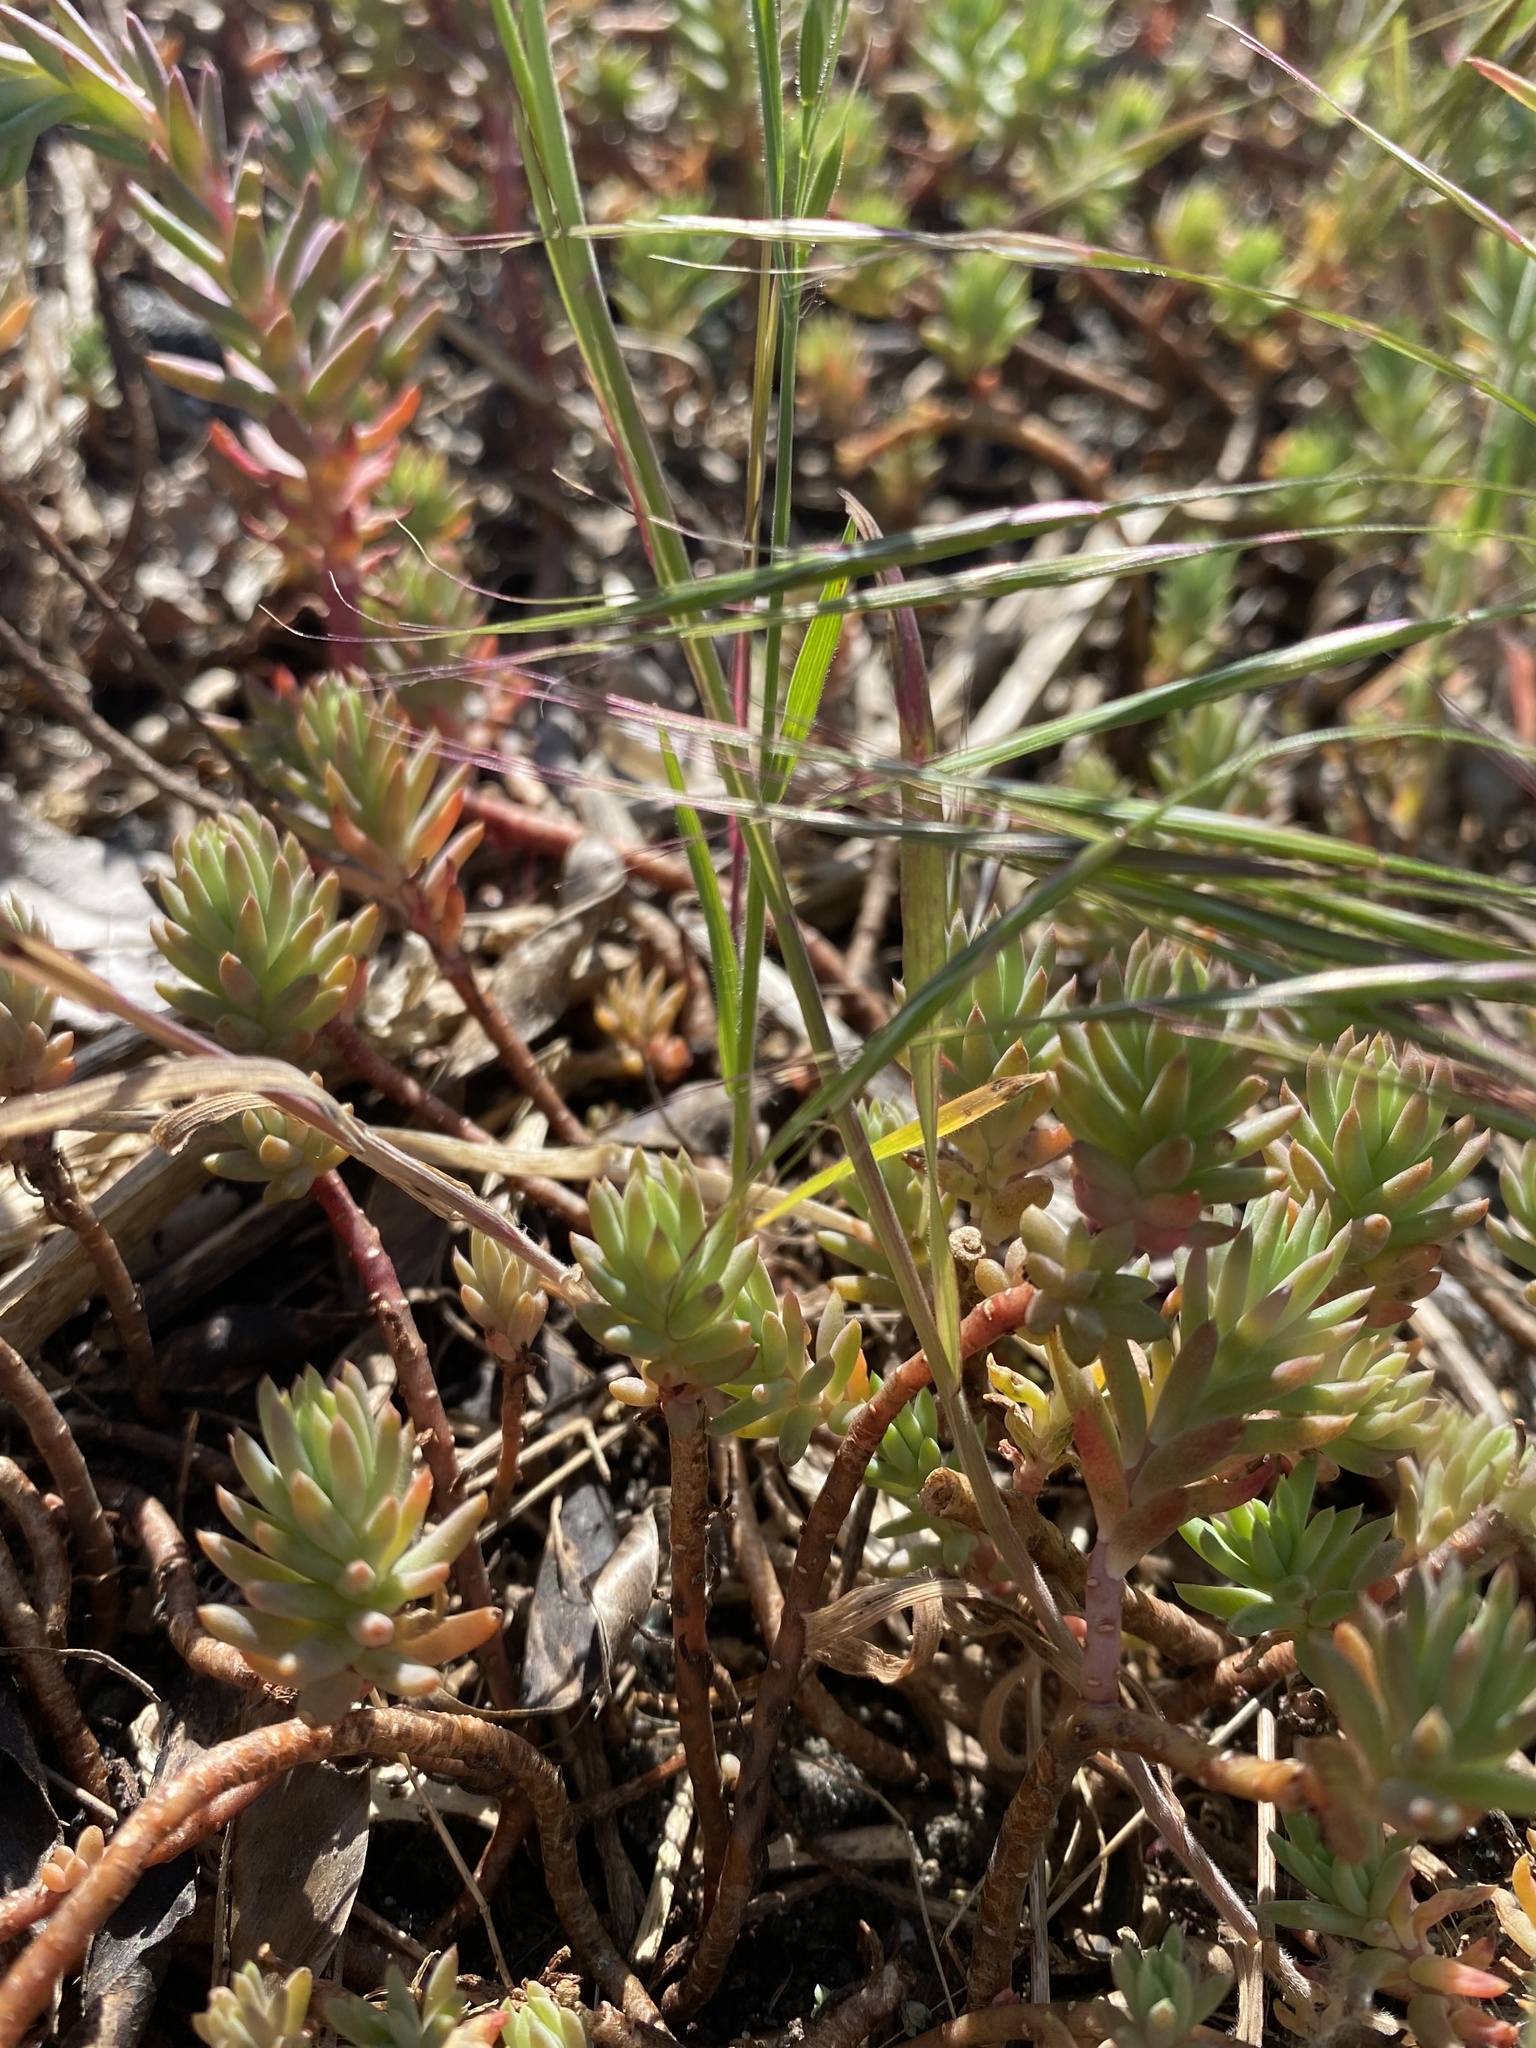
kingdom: Plantae
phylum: Tracheophyta
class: Magnoliopsida
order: Saxifragales
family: Crassulaceae
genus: Petrosedum
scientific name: Petrosedum rupestre
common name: Jenny's stonecrop
